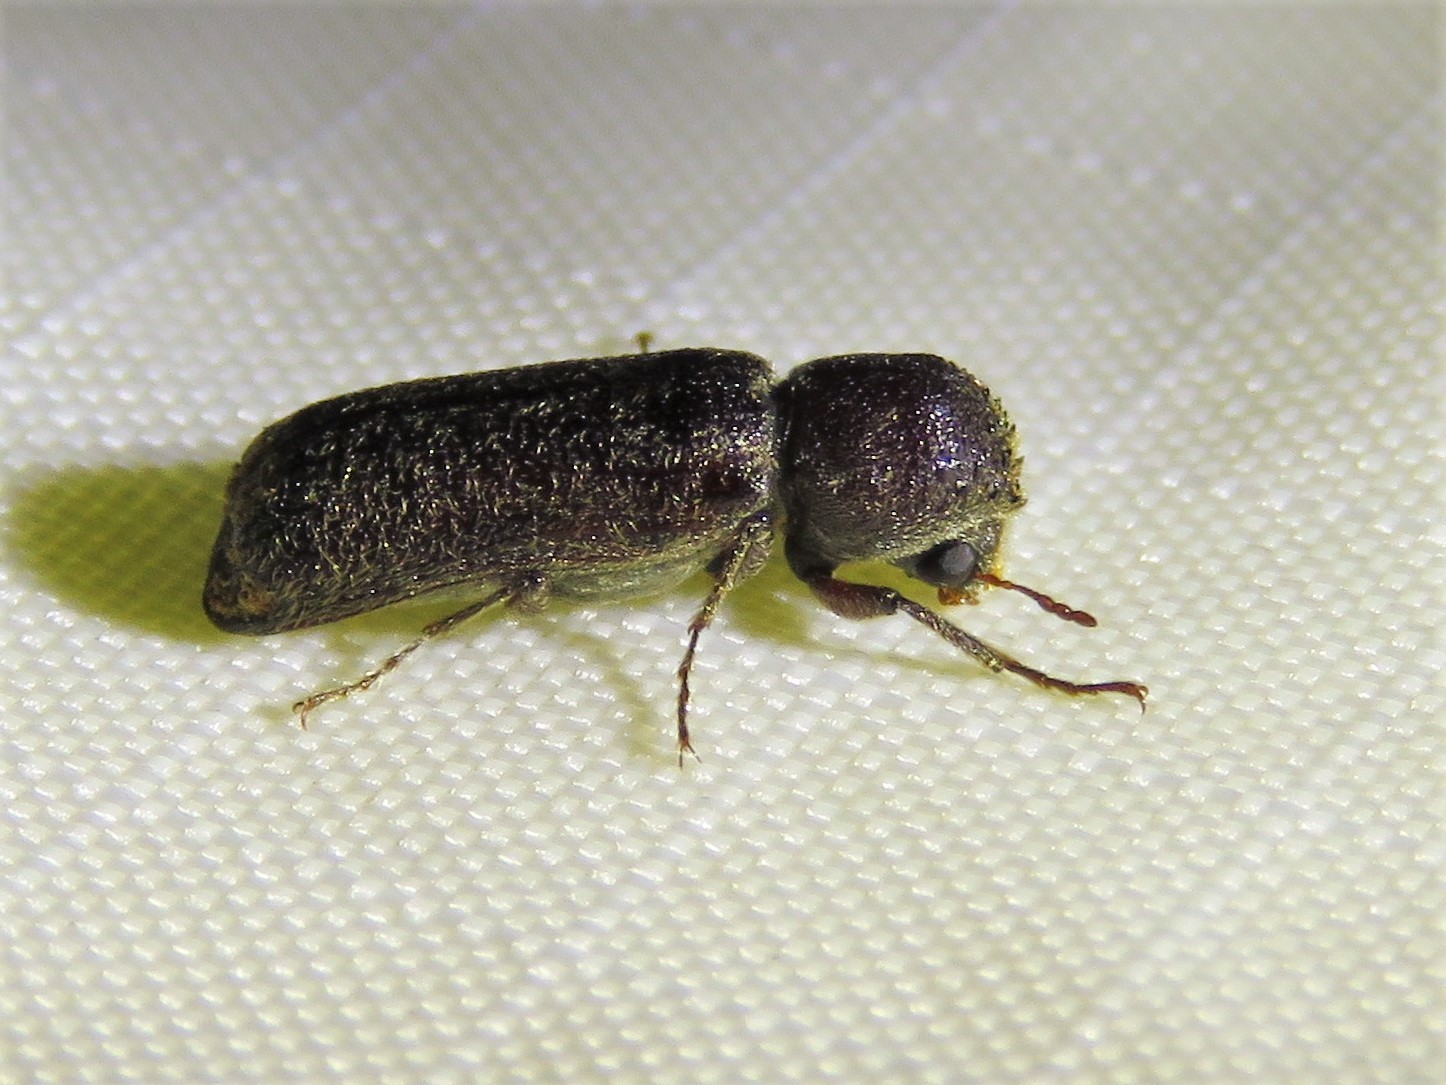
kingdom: Animalia
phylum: Arthropoda
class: Insecta
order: Coleoptera
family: Bostrichidae
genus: Amphicerus
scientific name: Amphicerus bicaudatus
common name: Apple twig borer
